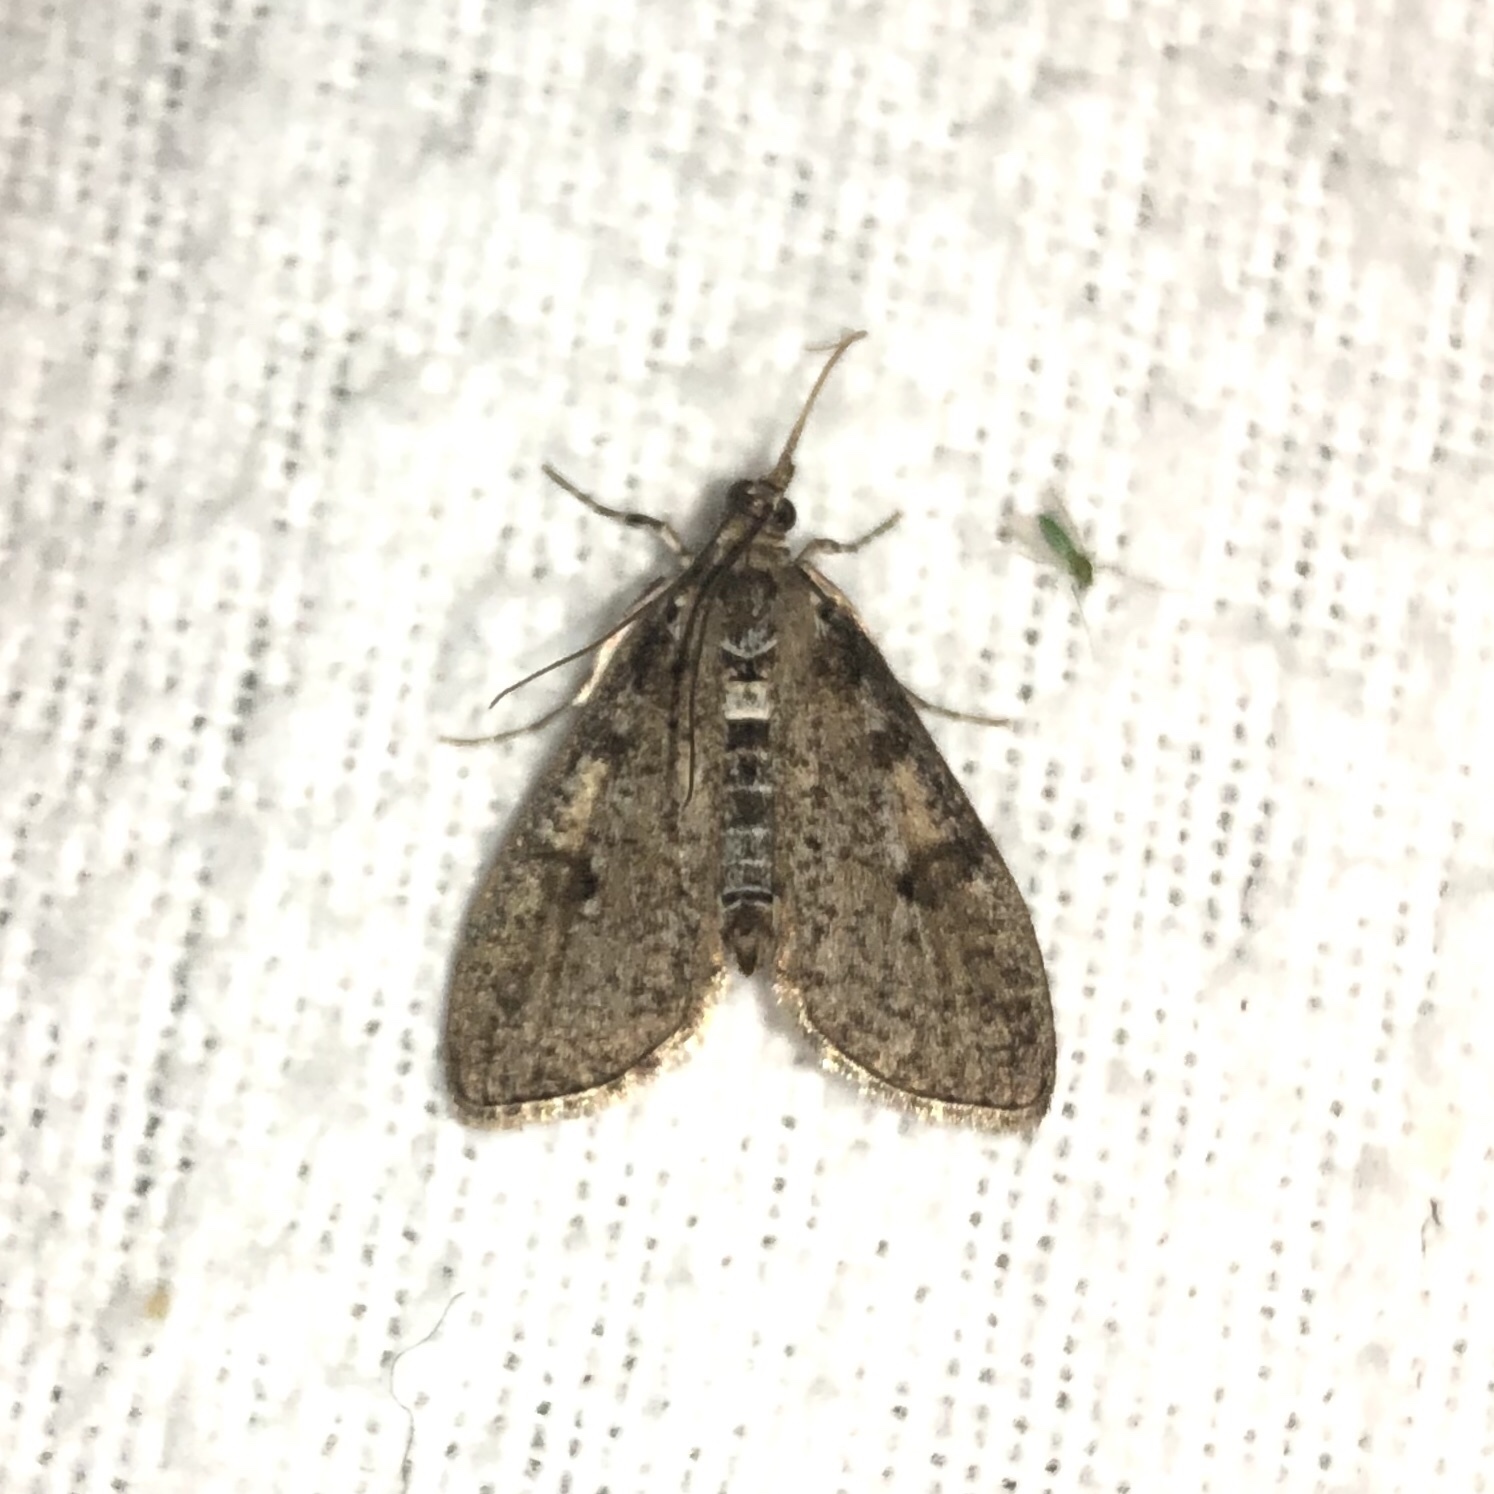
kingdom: Animalia
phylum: Arthropoda
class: Insecta
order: Lepidoptera
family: Crambidae
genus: Palpita
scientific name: Palpita aenescentalis
